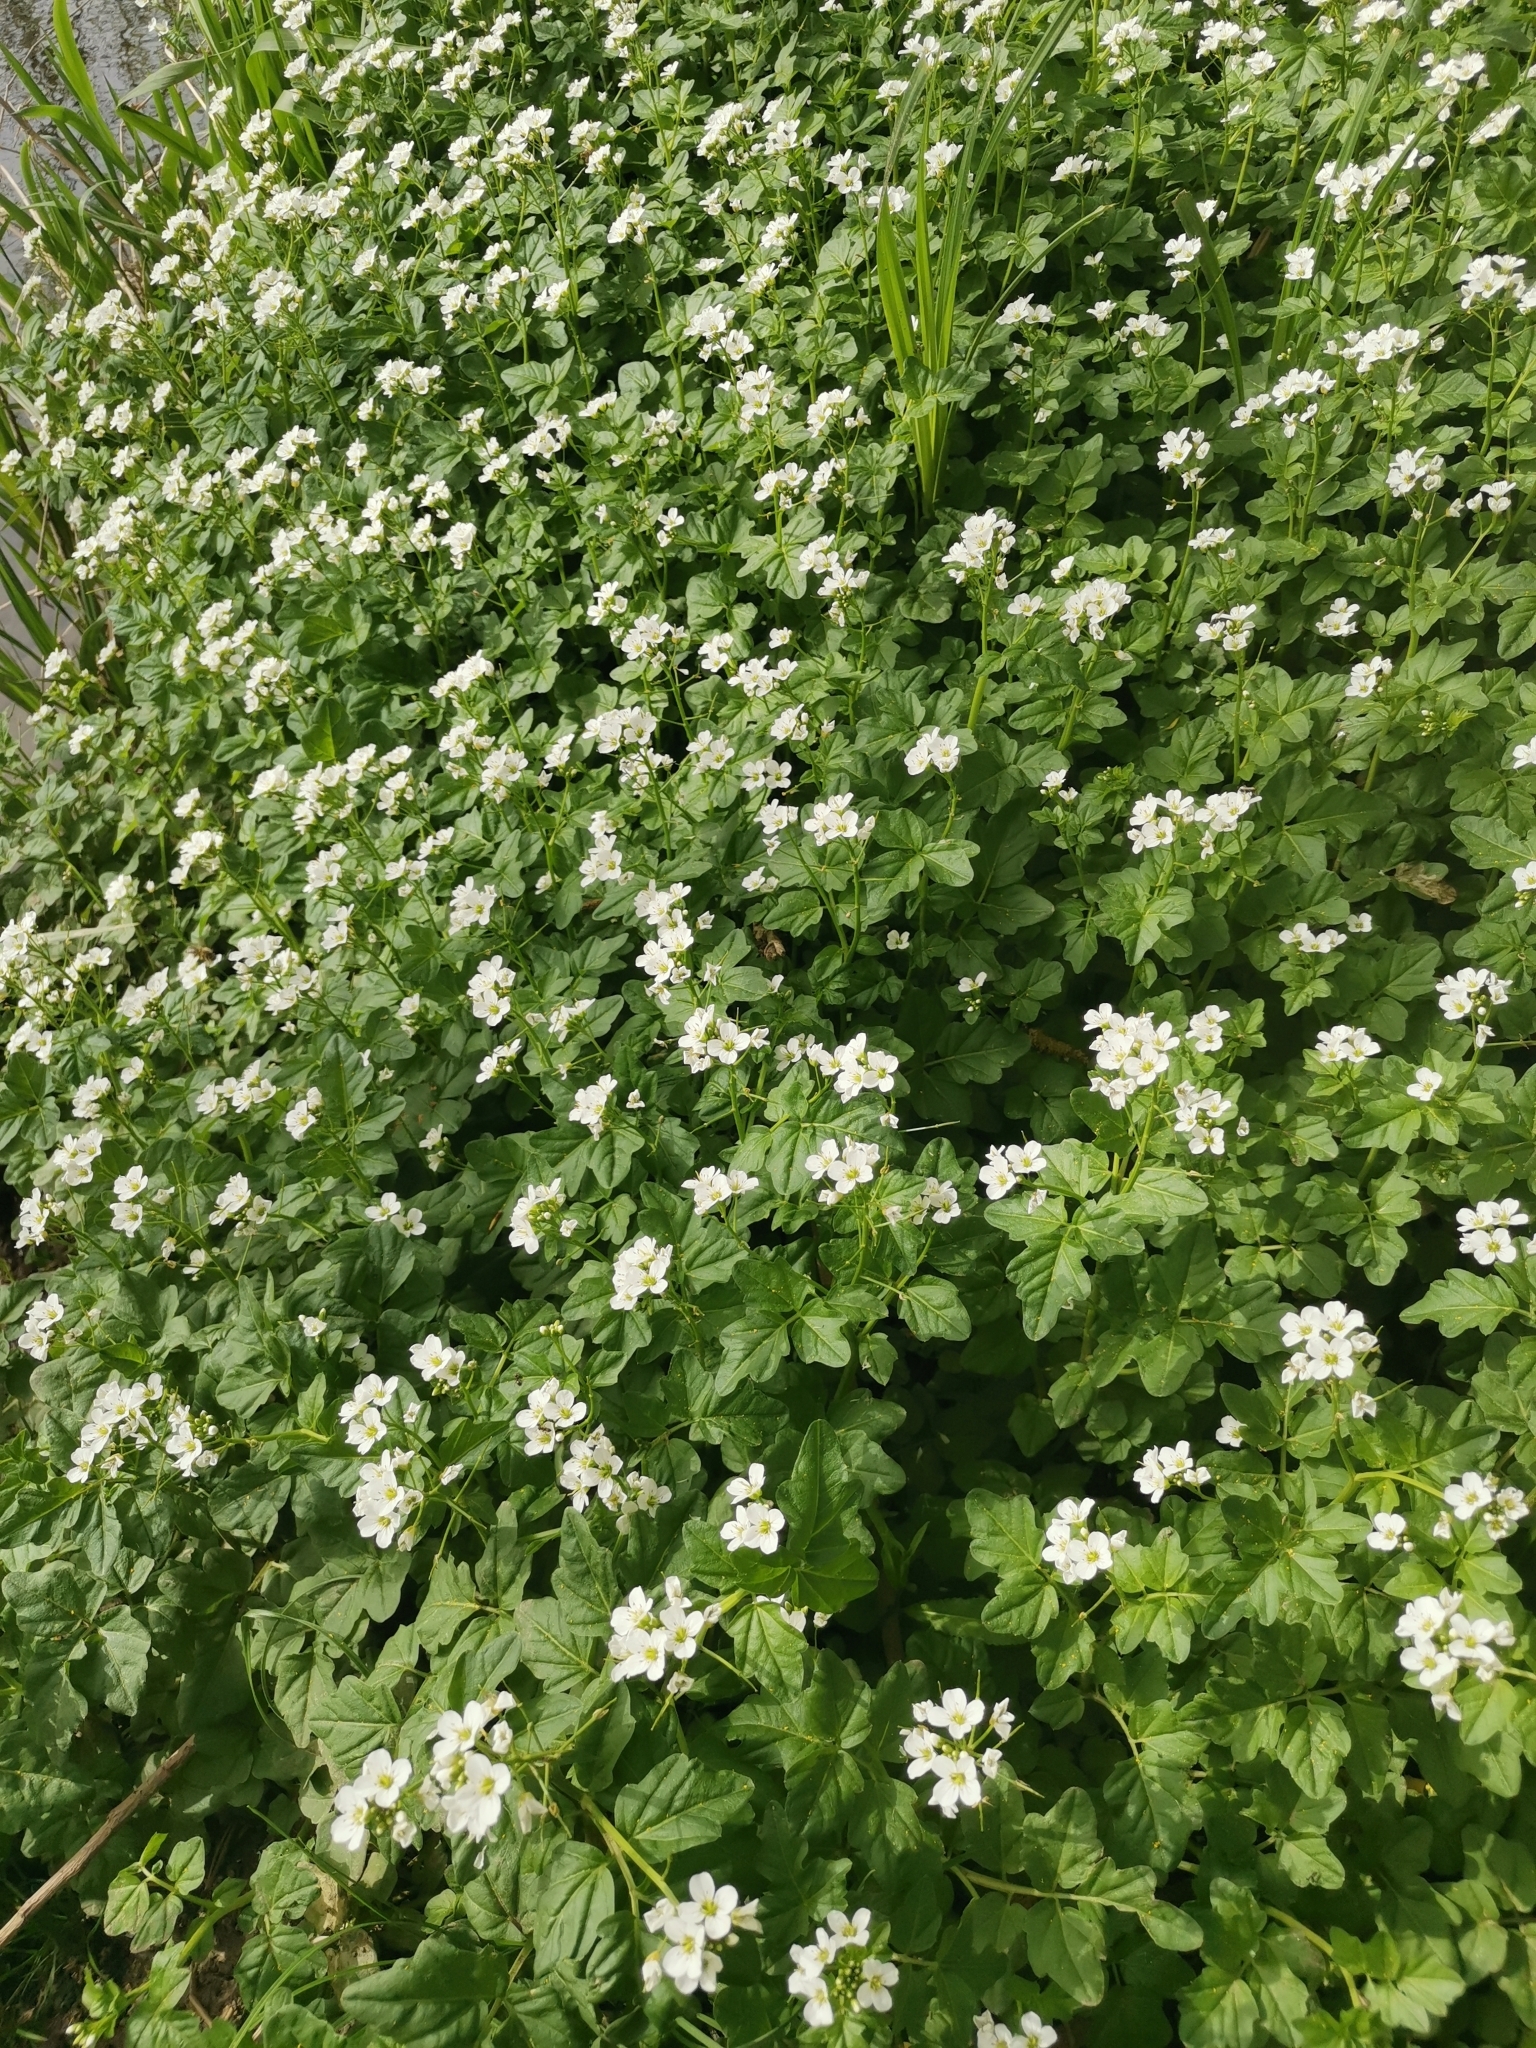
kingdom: Plantae
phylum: Tracheophyta
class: Magnoliopsida
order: Brassicales
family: Brassicaceae
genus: Cardamine
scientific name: Cardamine amara
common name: Large bitter-cress
